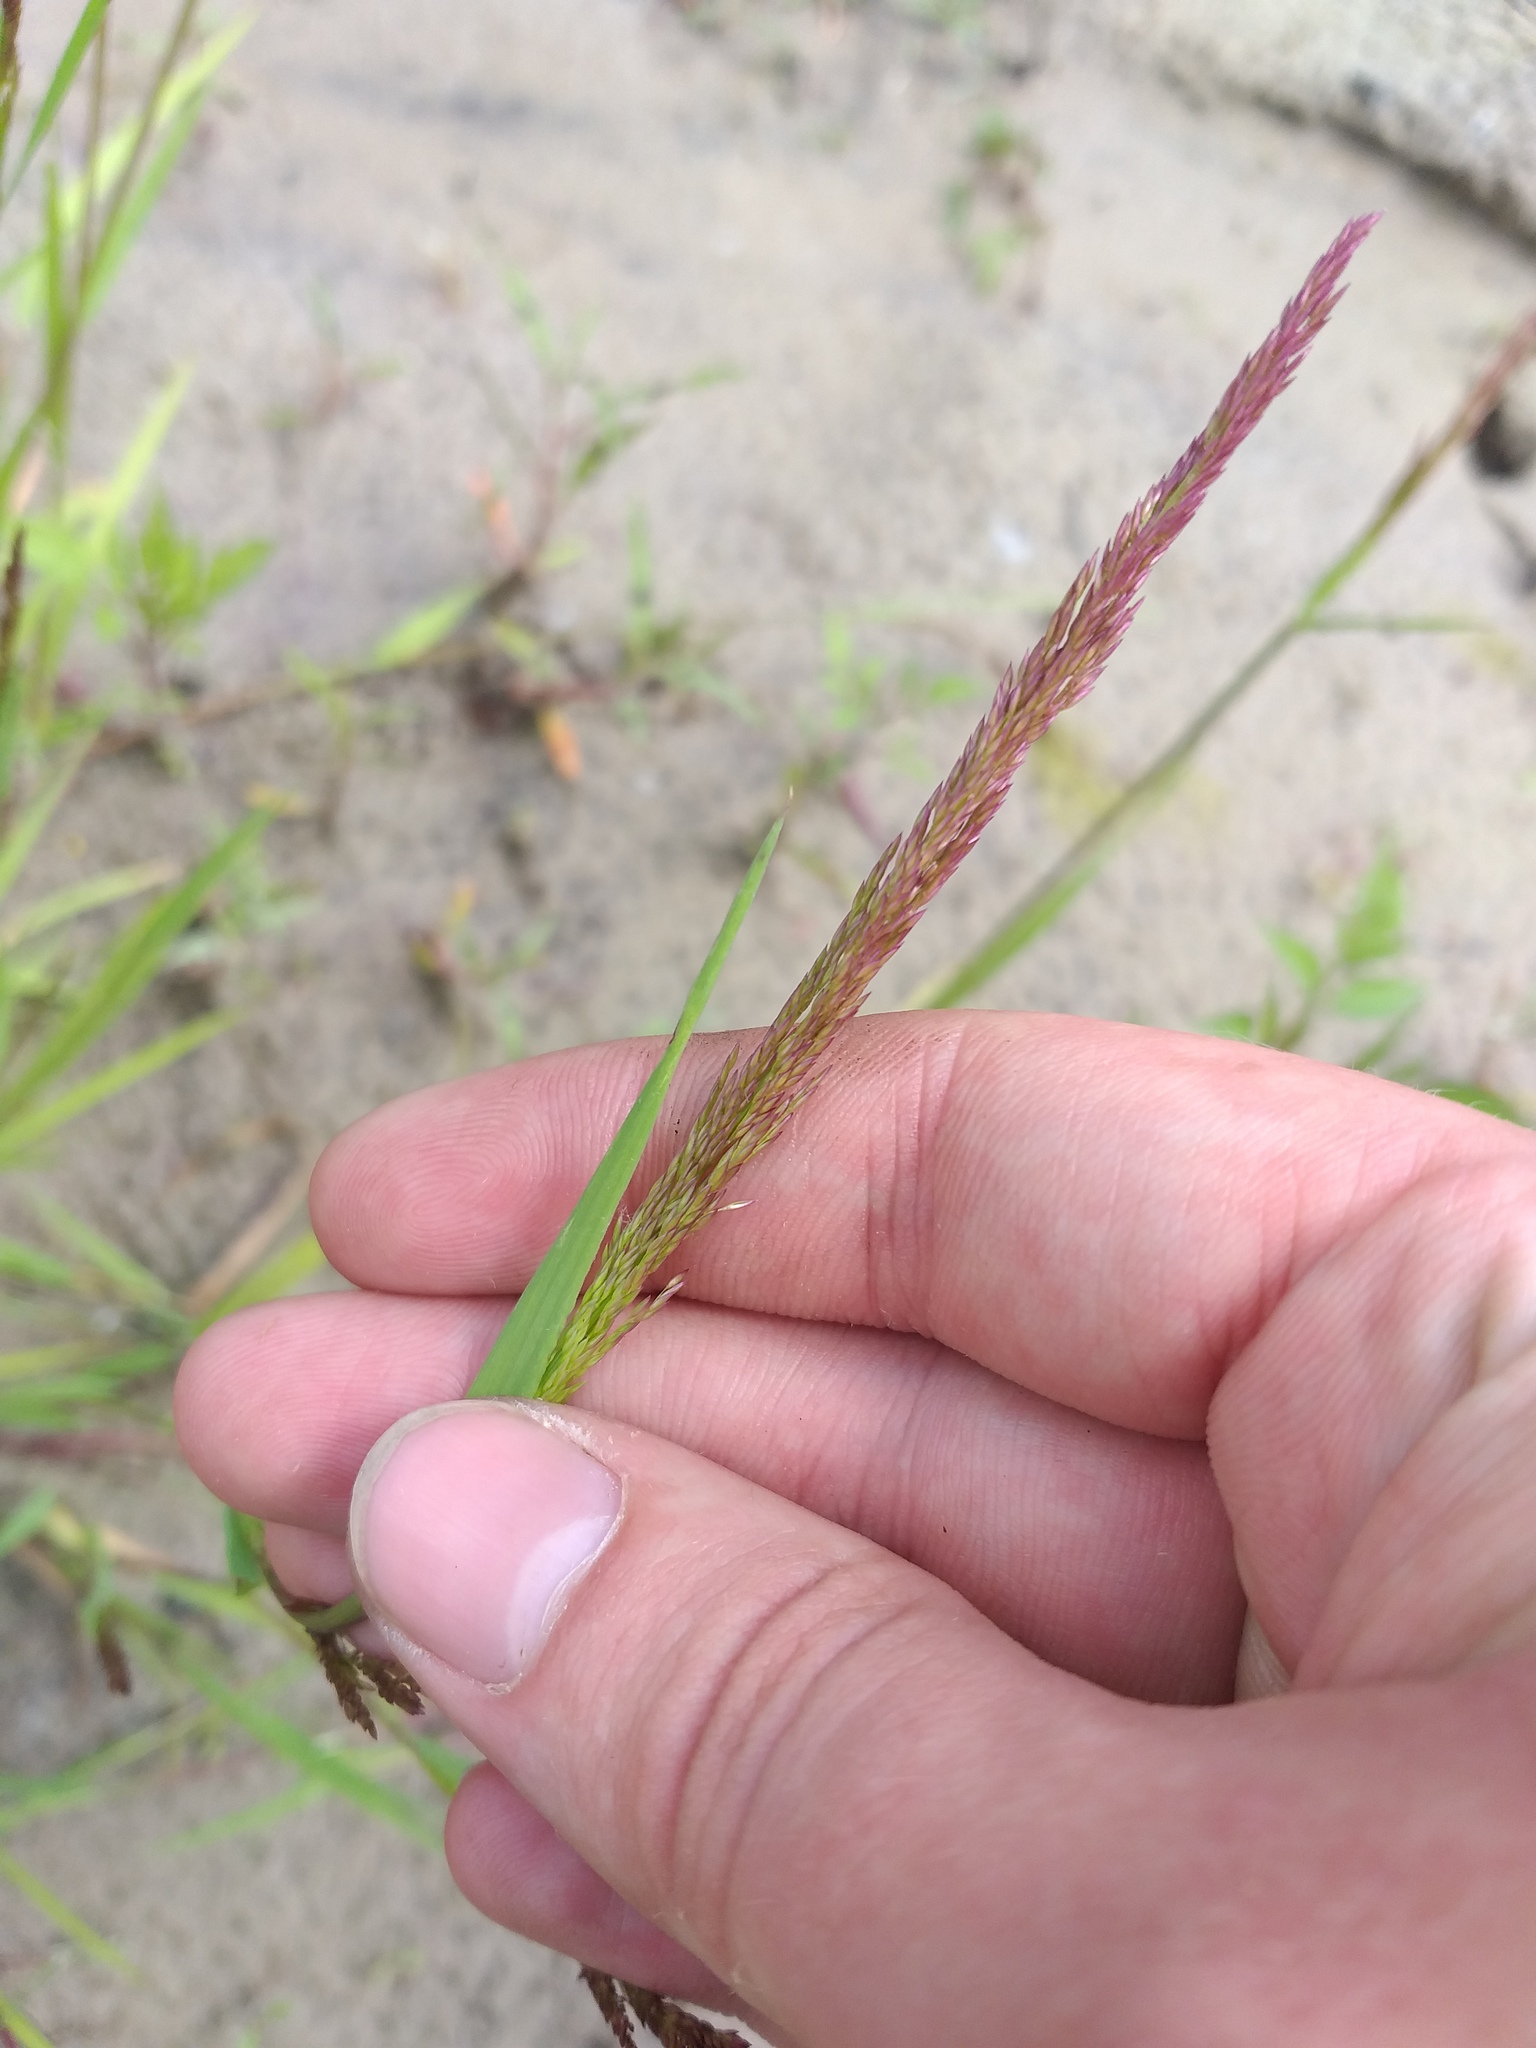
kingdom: Plantae
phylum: Tracheophyta
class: Liliopsida
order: Poales
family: Poaceae
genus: Agrostis
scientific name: Agrostis stolonifera
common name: Creeping bentgrass
